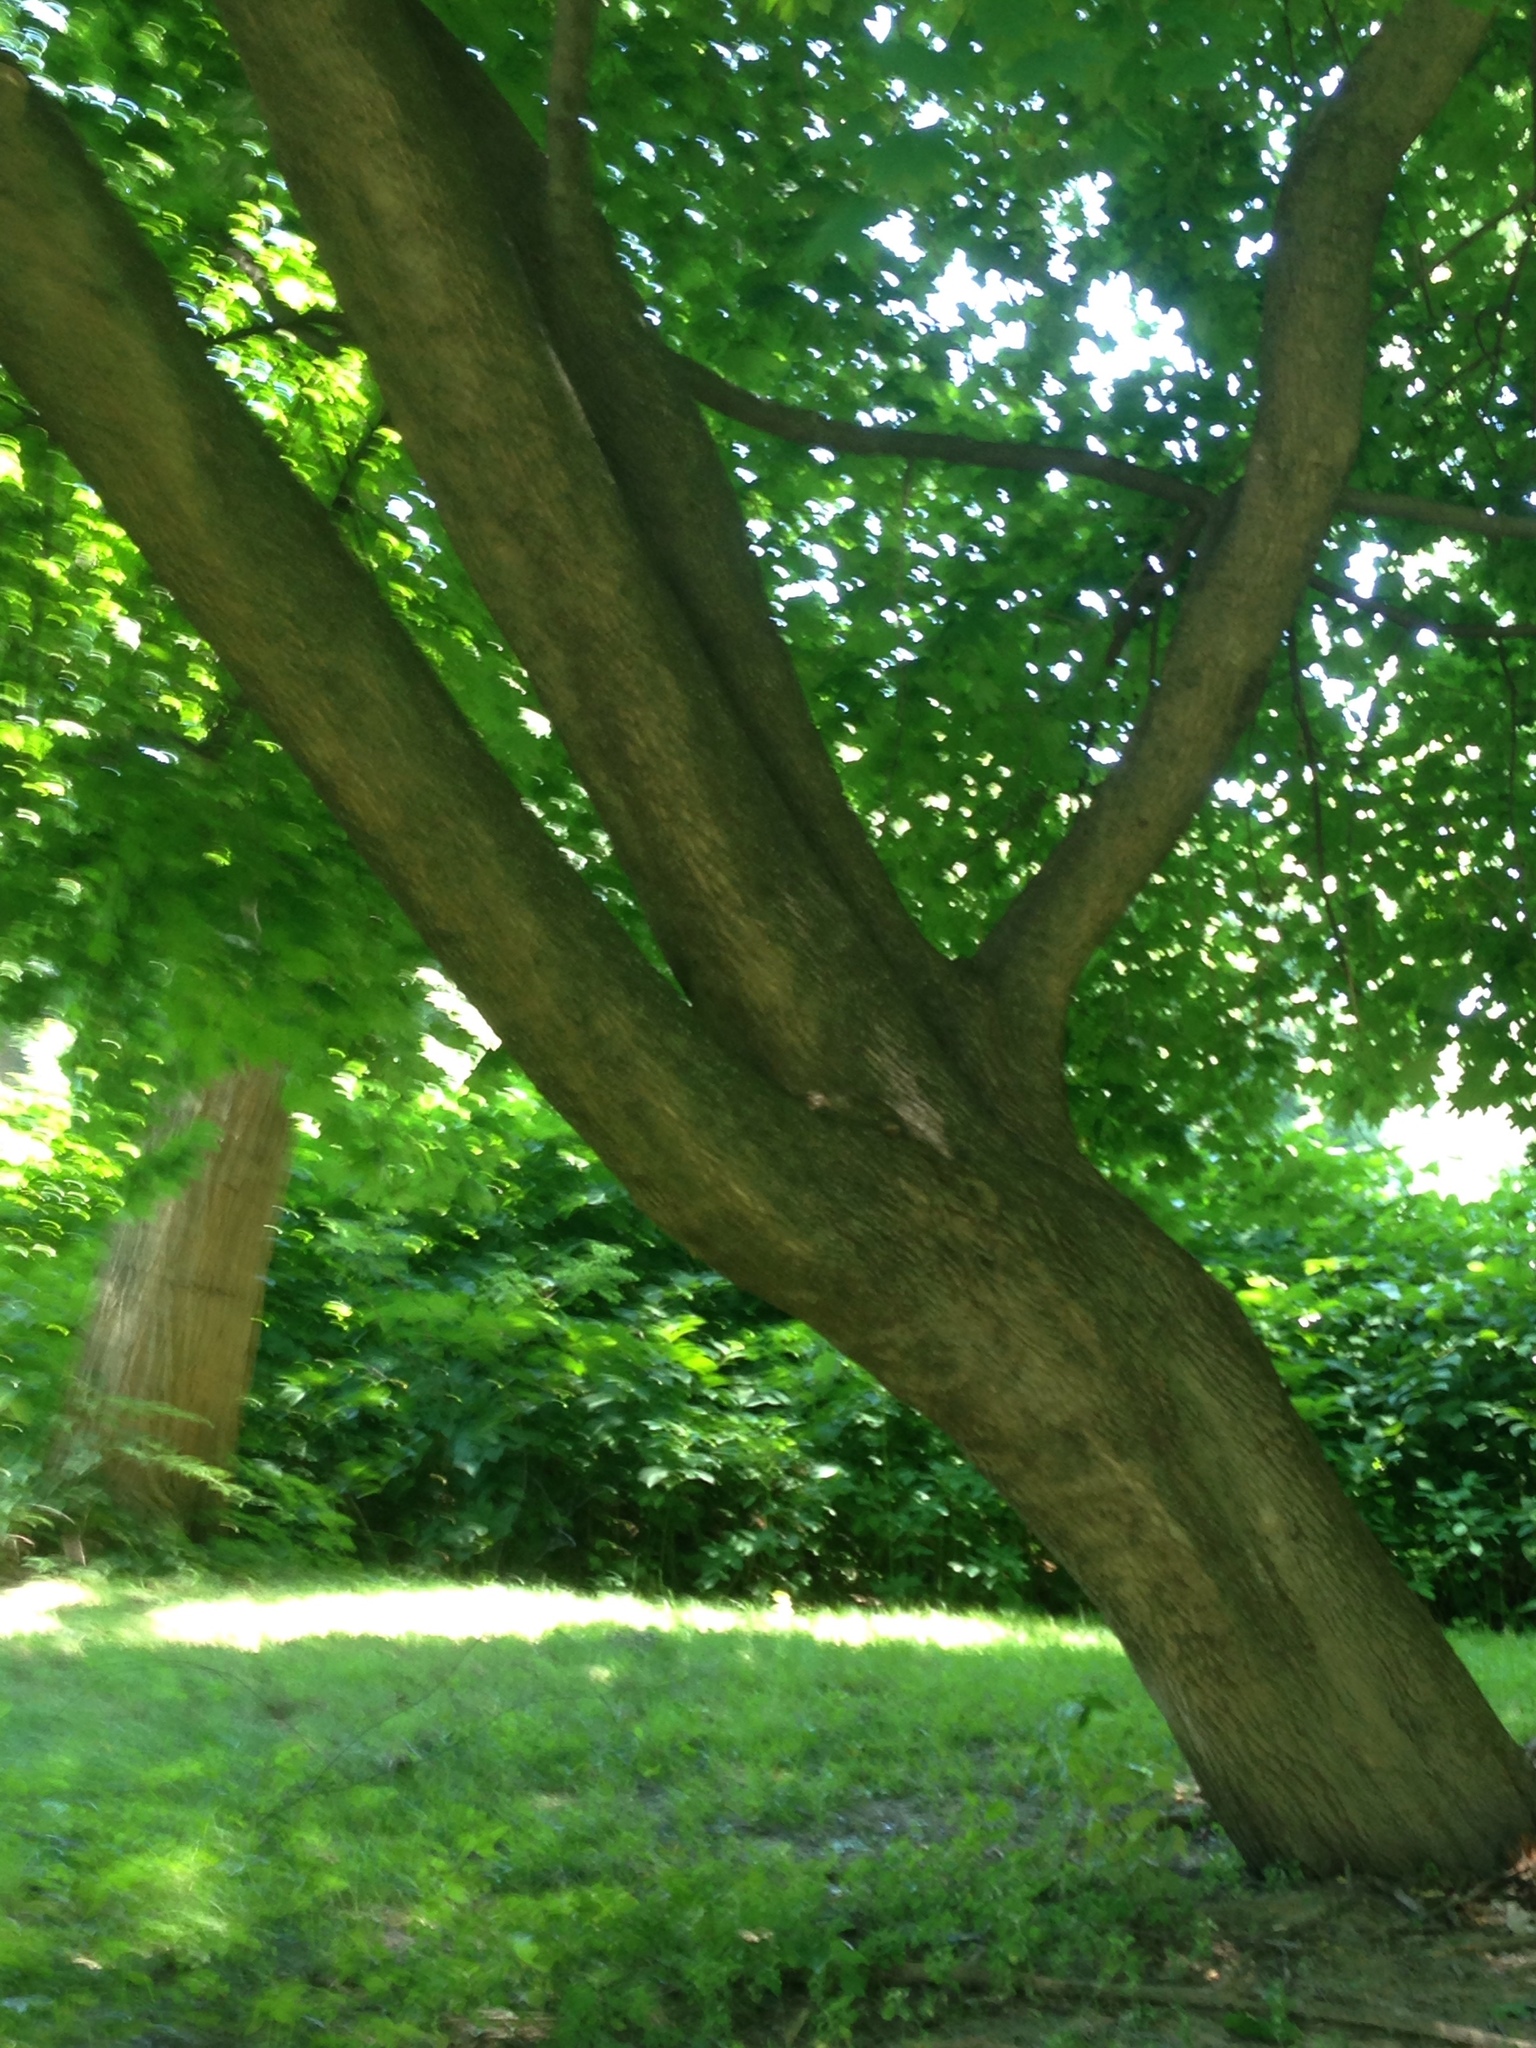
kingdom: Plantae
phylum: Tracheophyta
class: Magnoliopsida
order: Sapindales
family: Sapindaceae
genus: Acer
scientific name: Acer platanoides
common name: Norway maple
